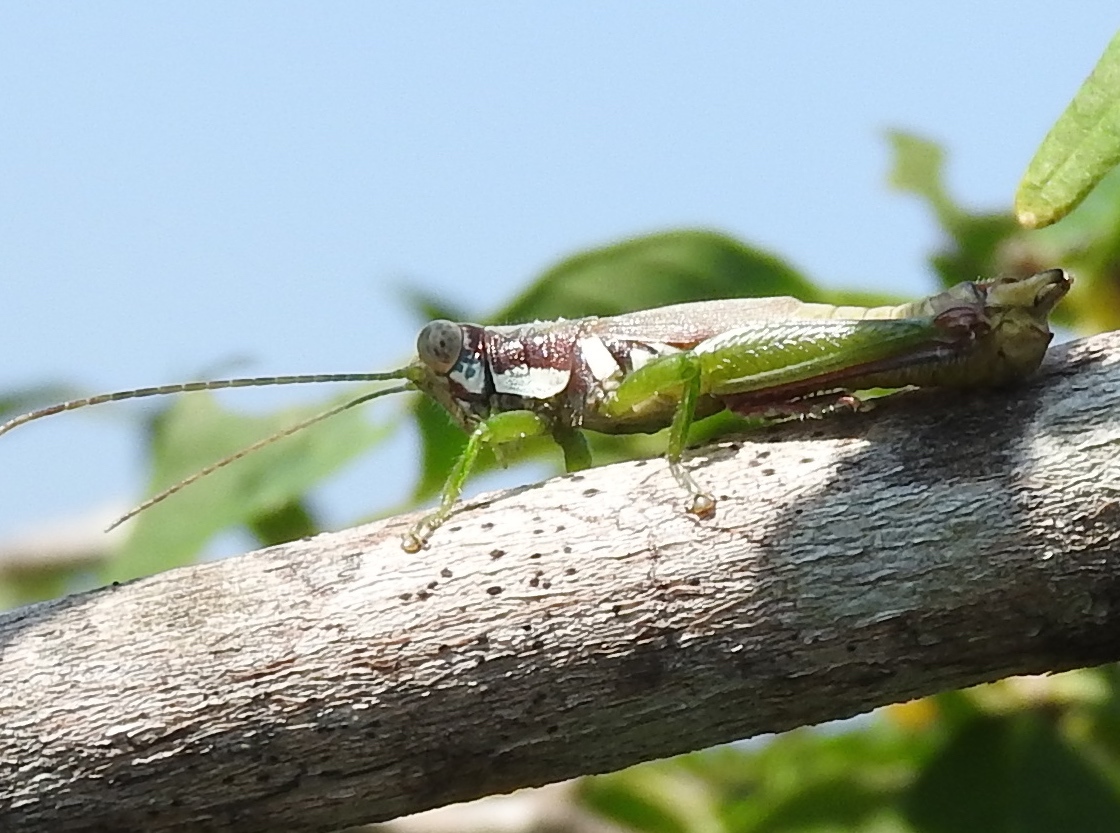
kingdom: Animalia
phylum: Arthropoda
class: Insecta
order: Orthoptera
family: Acrididae
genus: Proctolabus
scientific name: Proctolabus cerciatus
